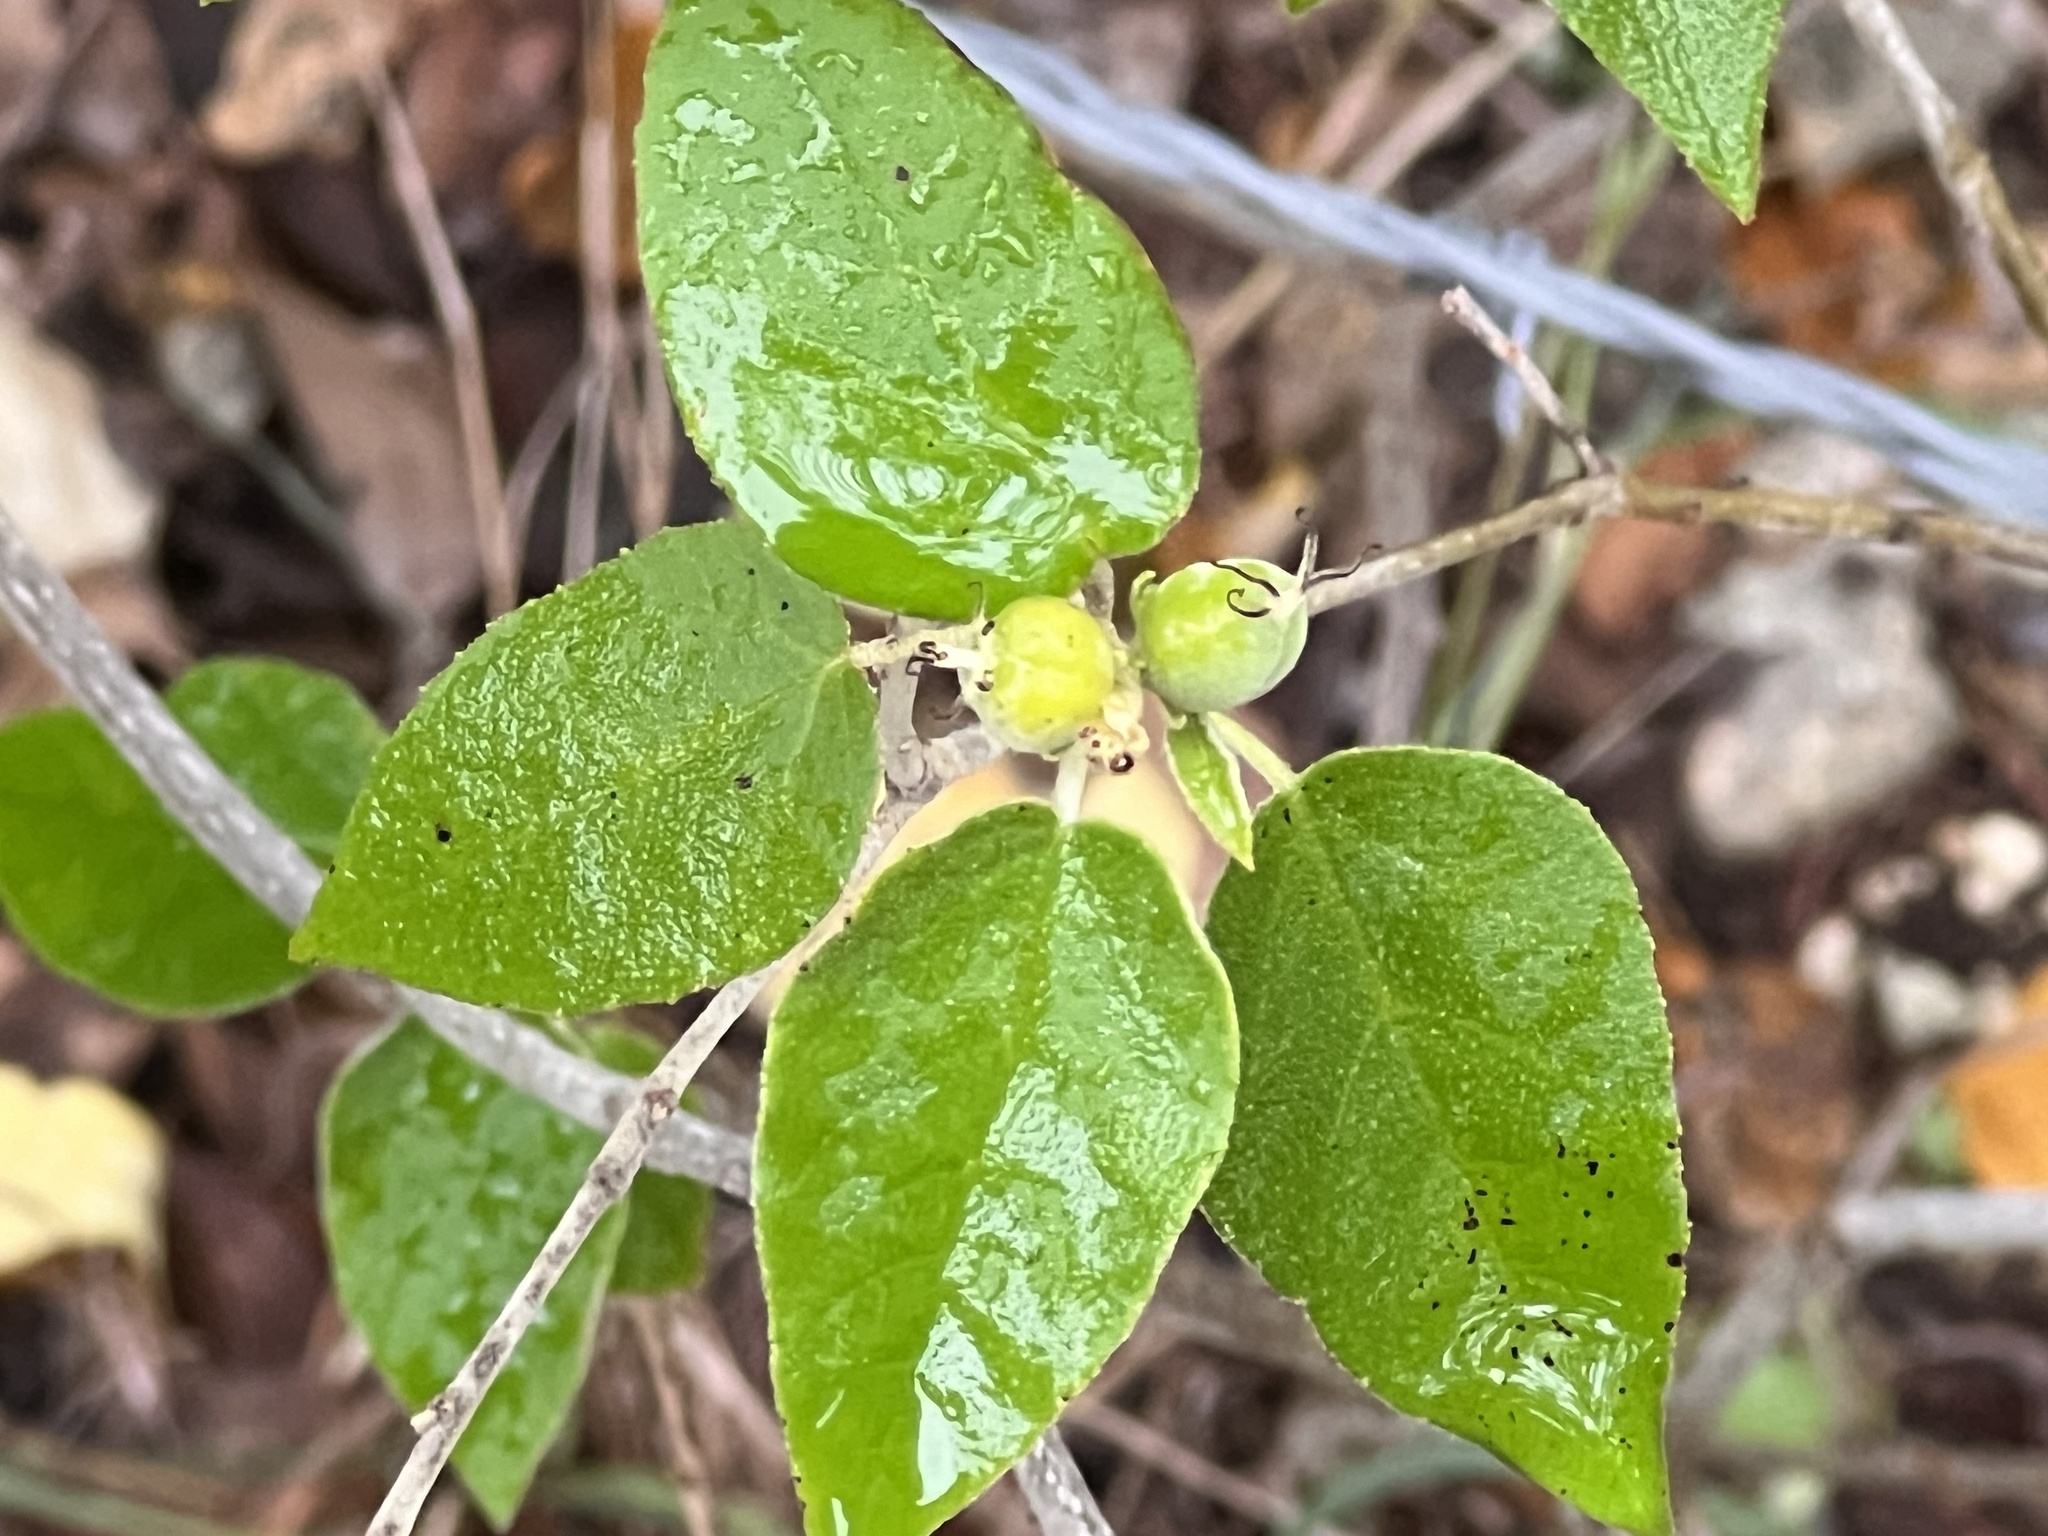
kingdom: Plantae
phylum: Tracheophyta
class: Magnoliopsida
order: Malpighiales
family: Euphorbiaceae
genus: Croton
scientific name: Croton fruticulosus
